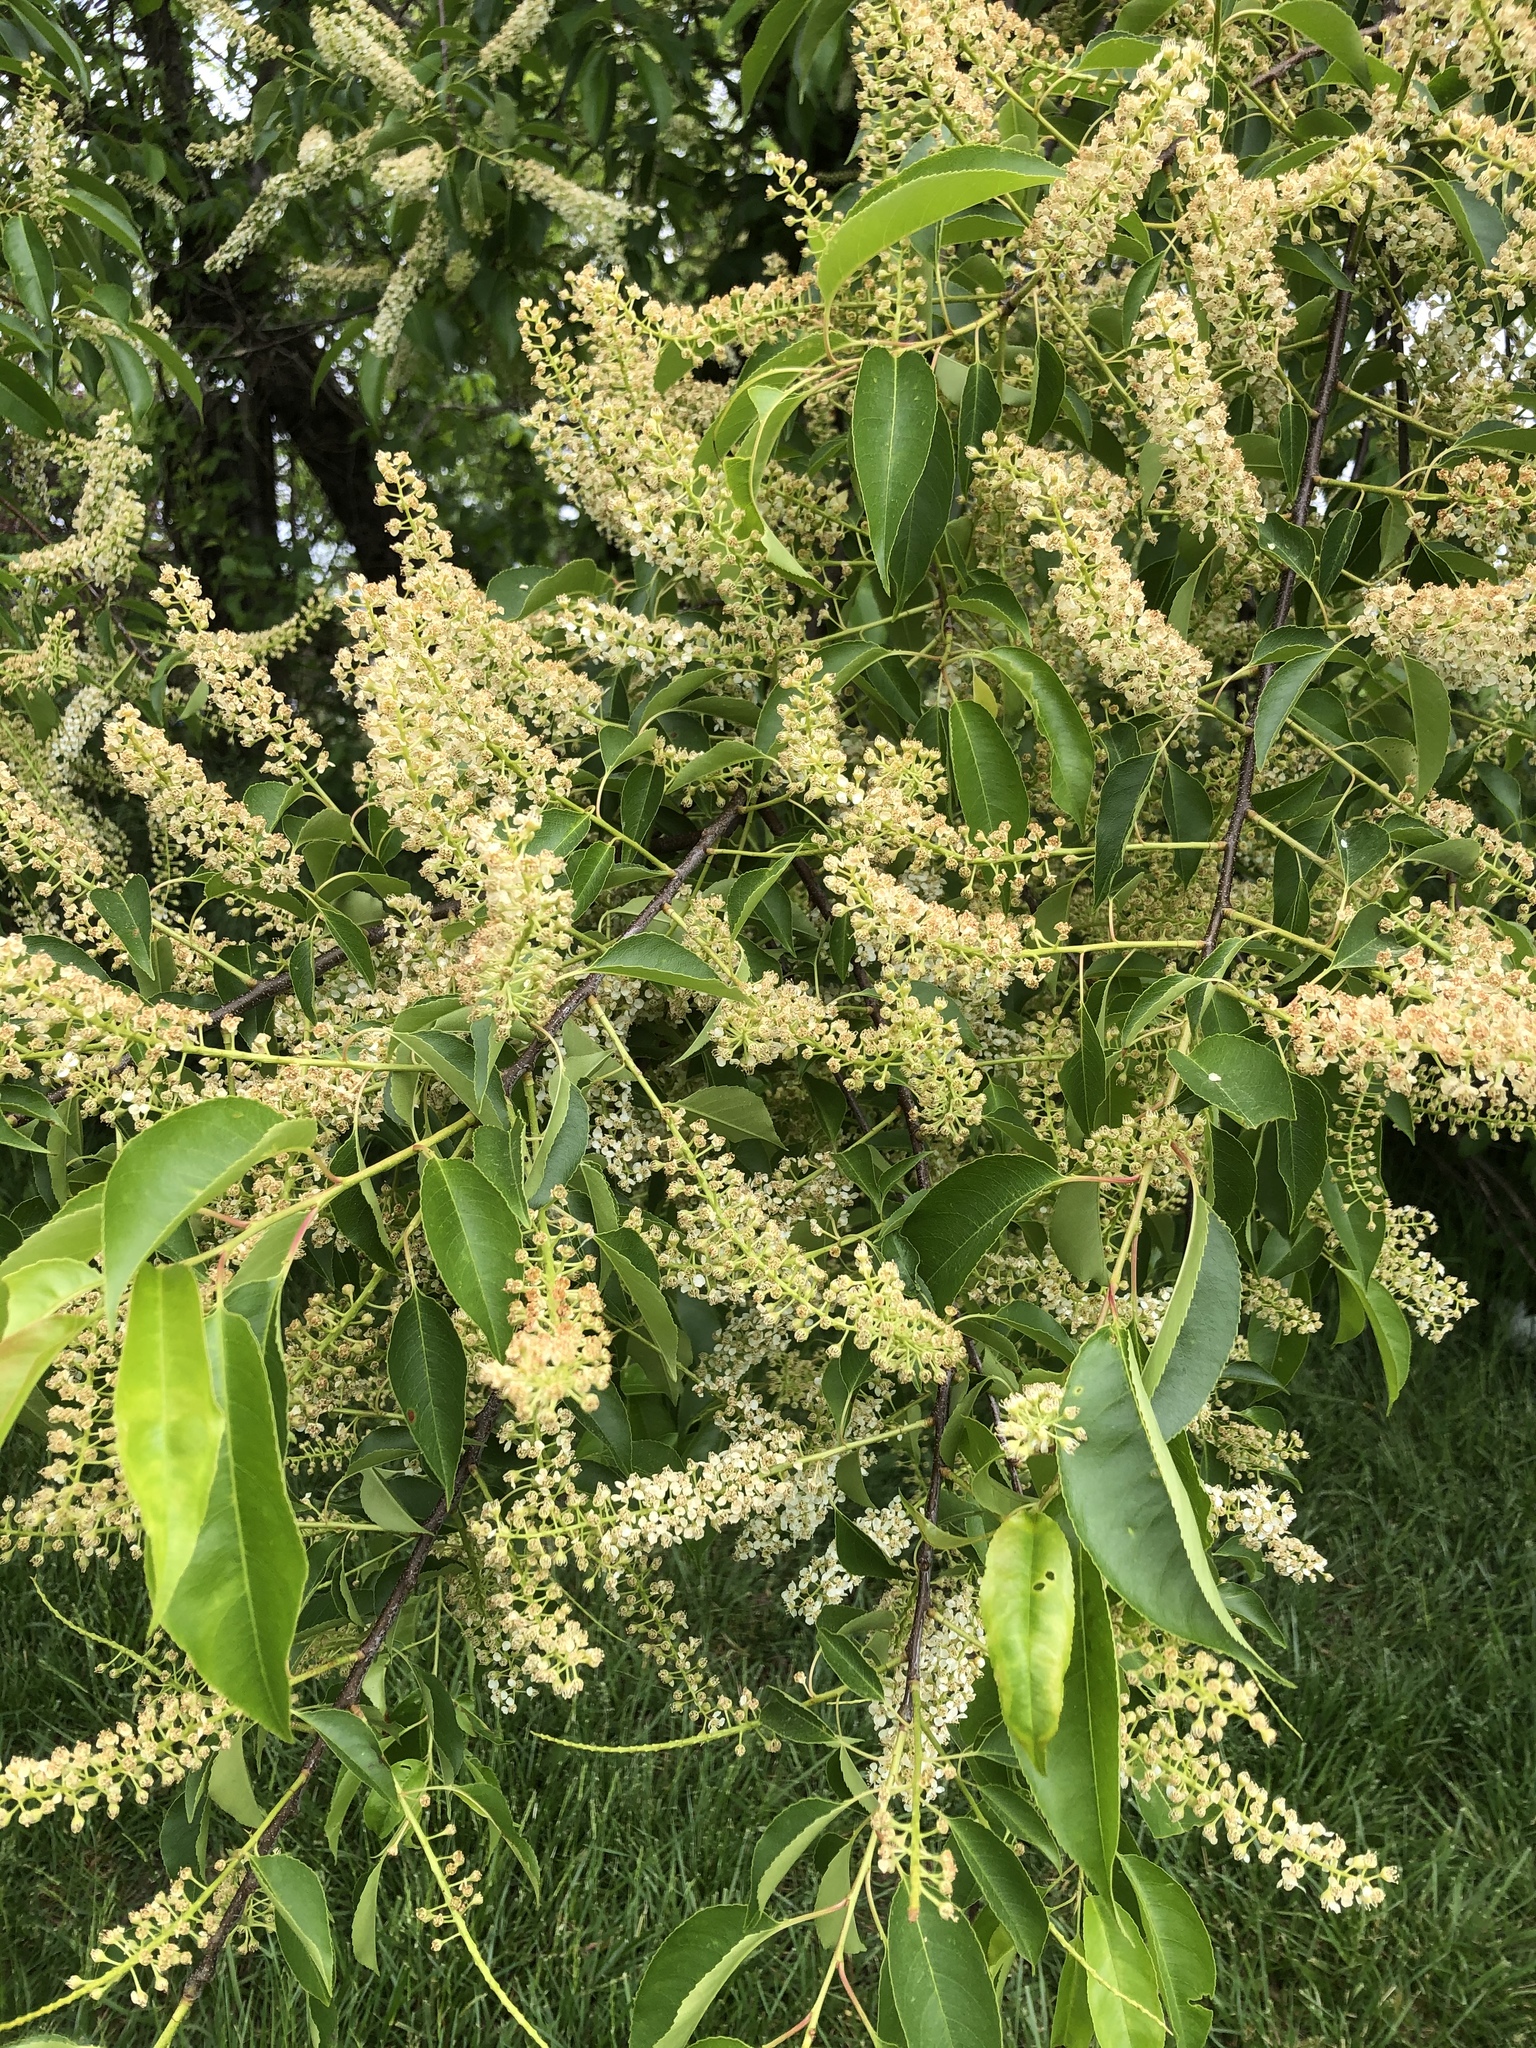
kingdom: Plantae
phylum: Tracheophyta
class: Magnoliopsida
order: Rosales
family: Rosaceae
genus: Prunus
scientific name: Prunus serotina
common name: Black cherry
